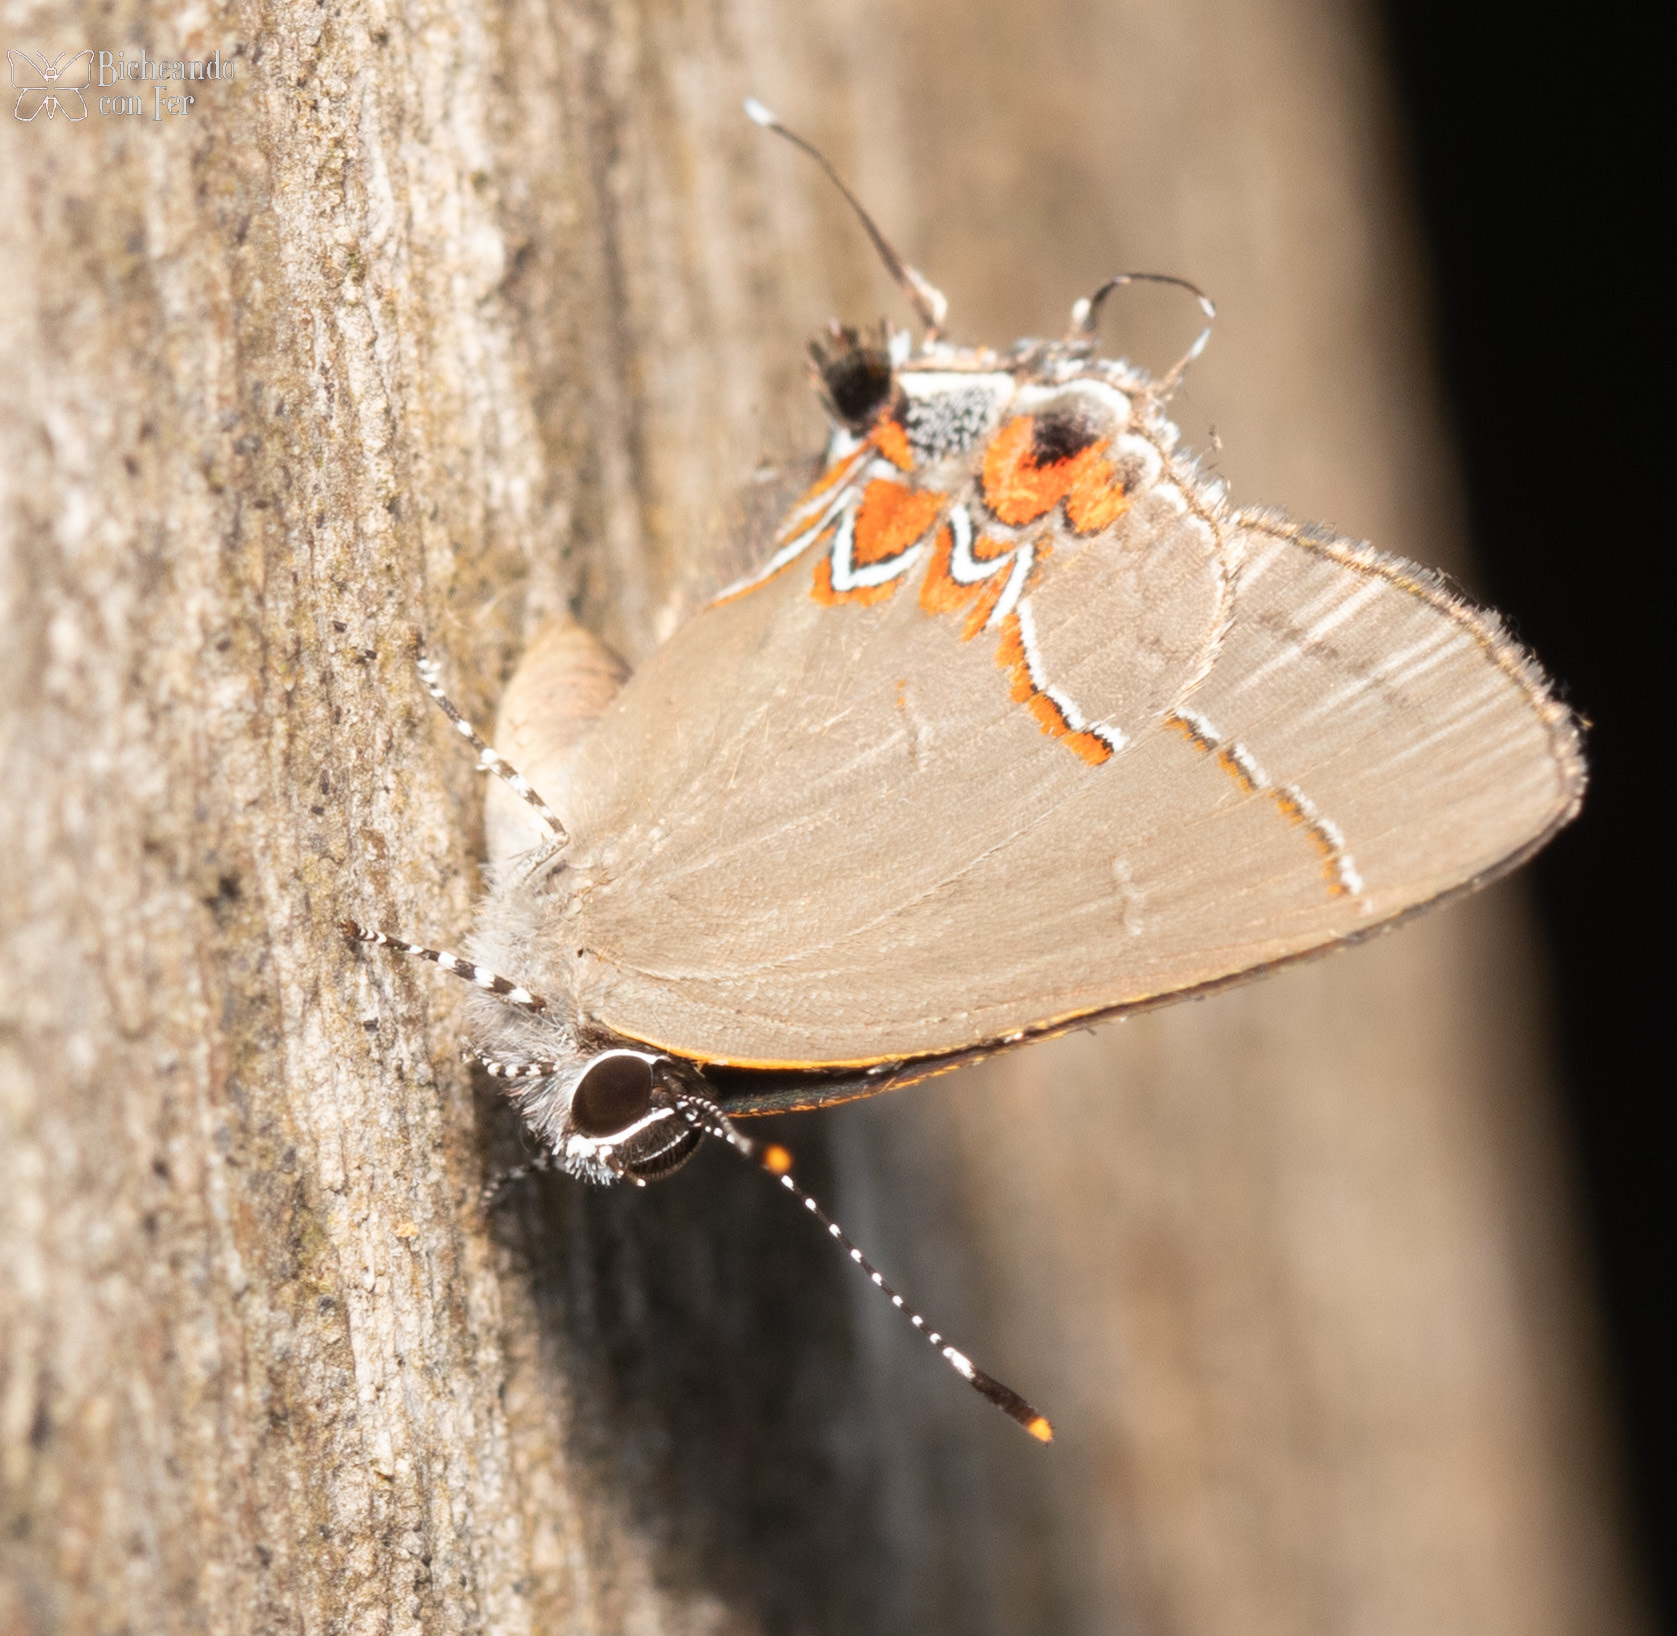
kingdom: Animalia
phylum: Arthropoda
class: Insecta
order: Lepidoptera
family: Lycaenidae
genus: Calycopis
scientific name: Calycopis
